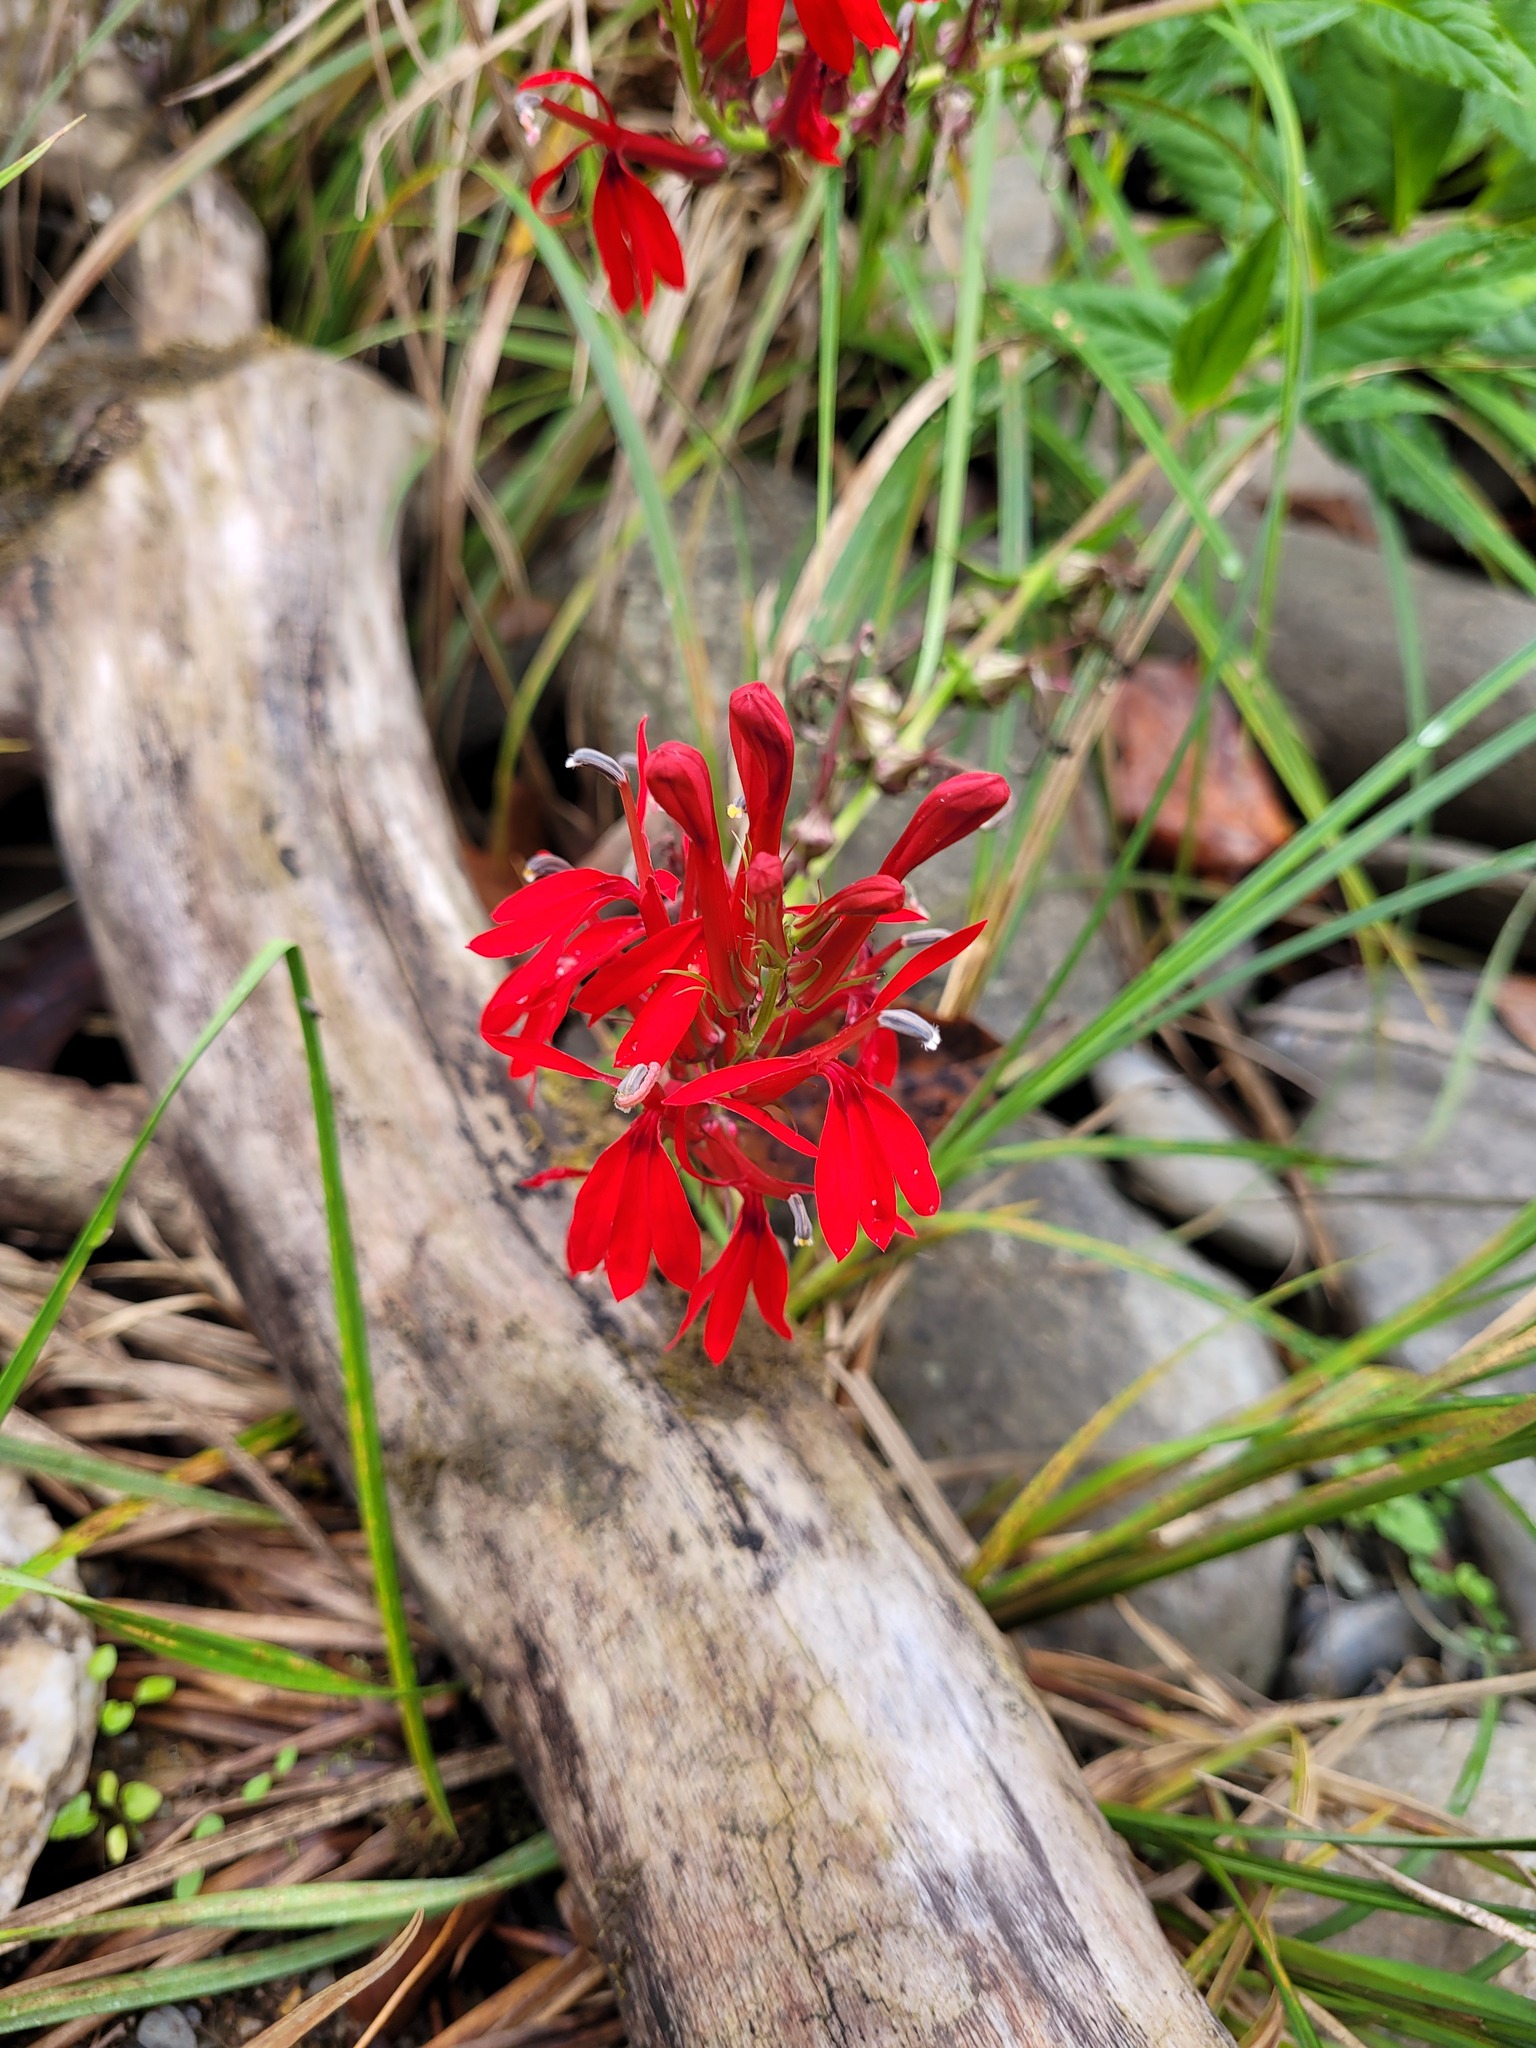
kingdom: Plantae
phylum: Tracheophyta
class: Magnoliopsida
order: Asterales
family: Campanulaceae
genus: Lobelia
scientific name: Lobelia cardinalis
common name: Cardinal flower
